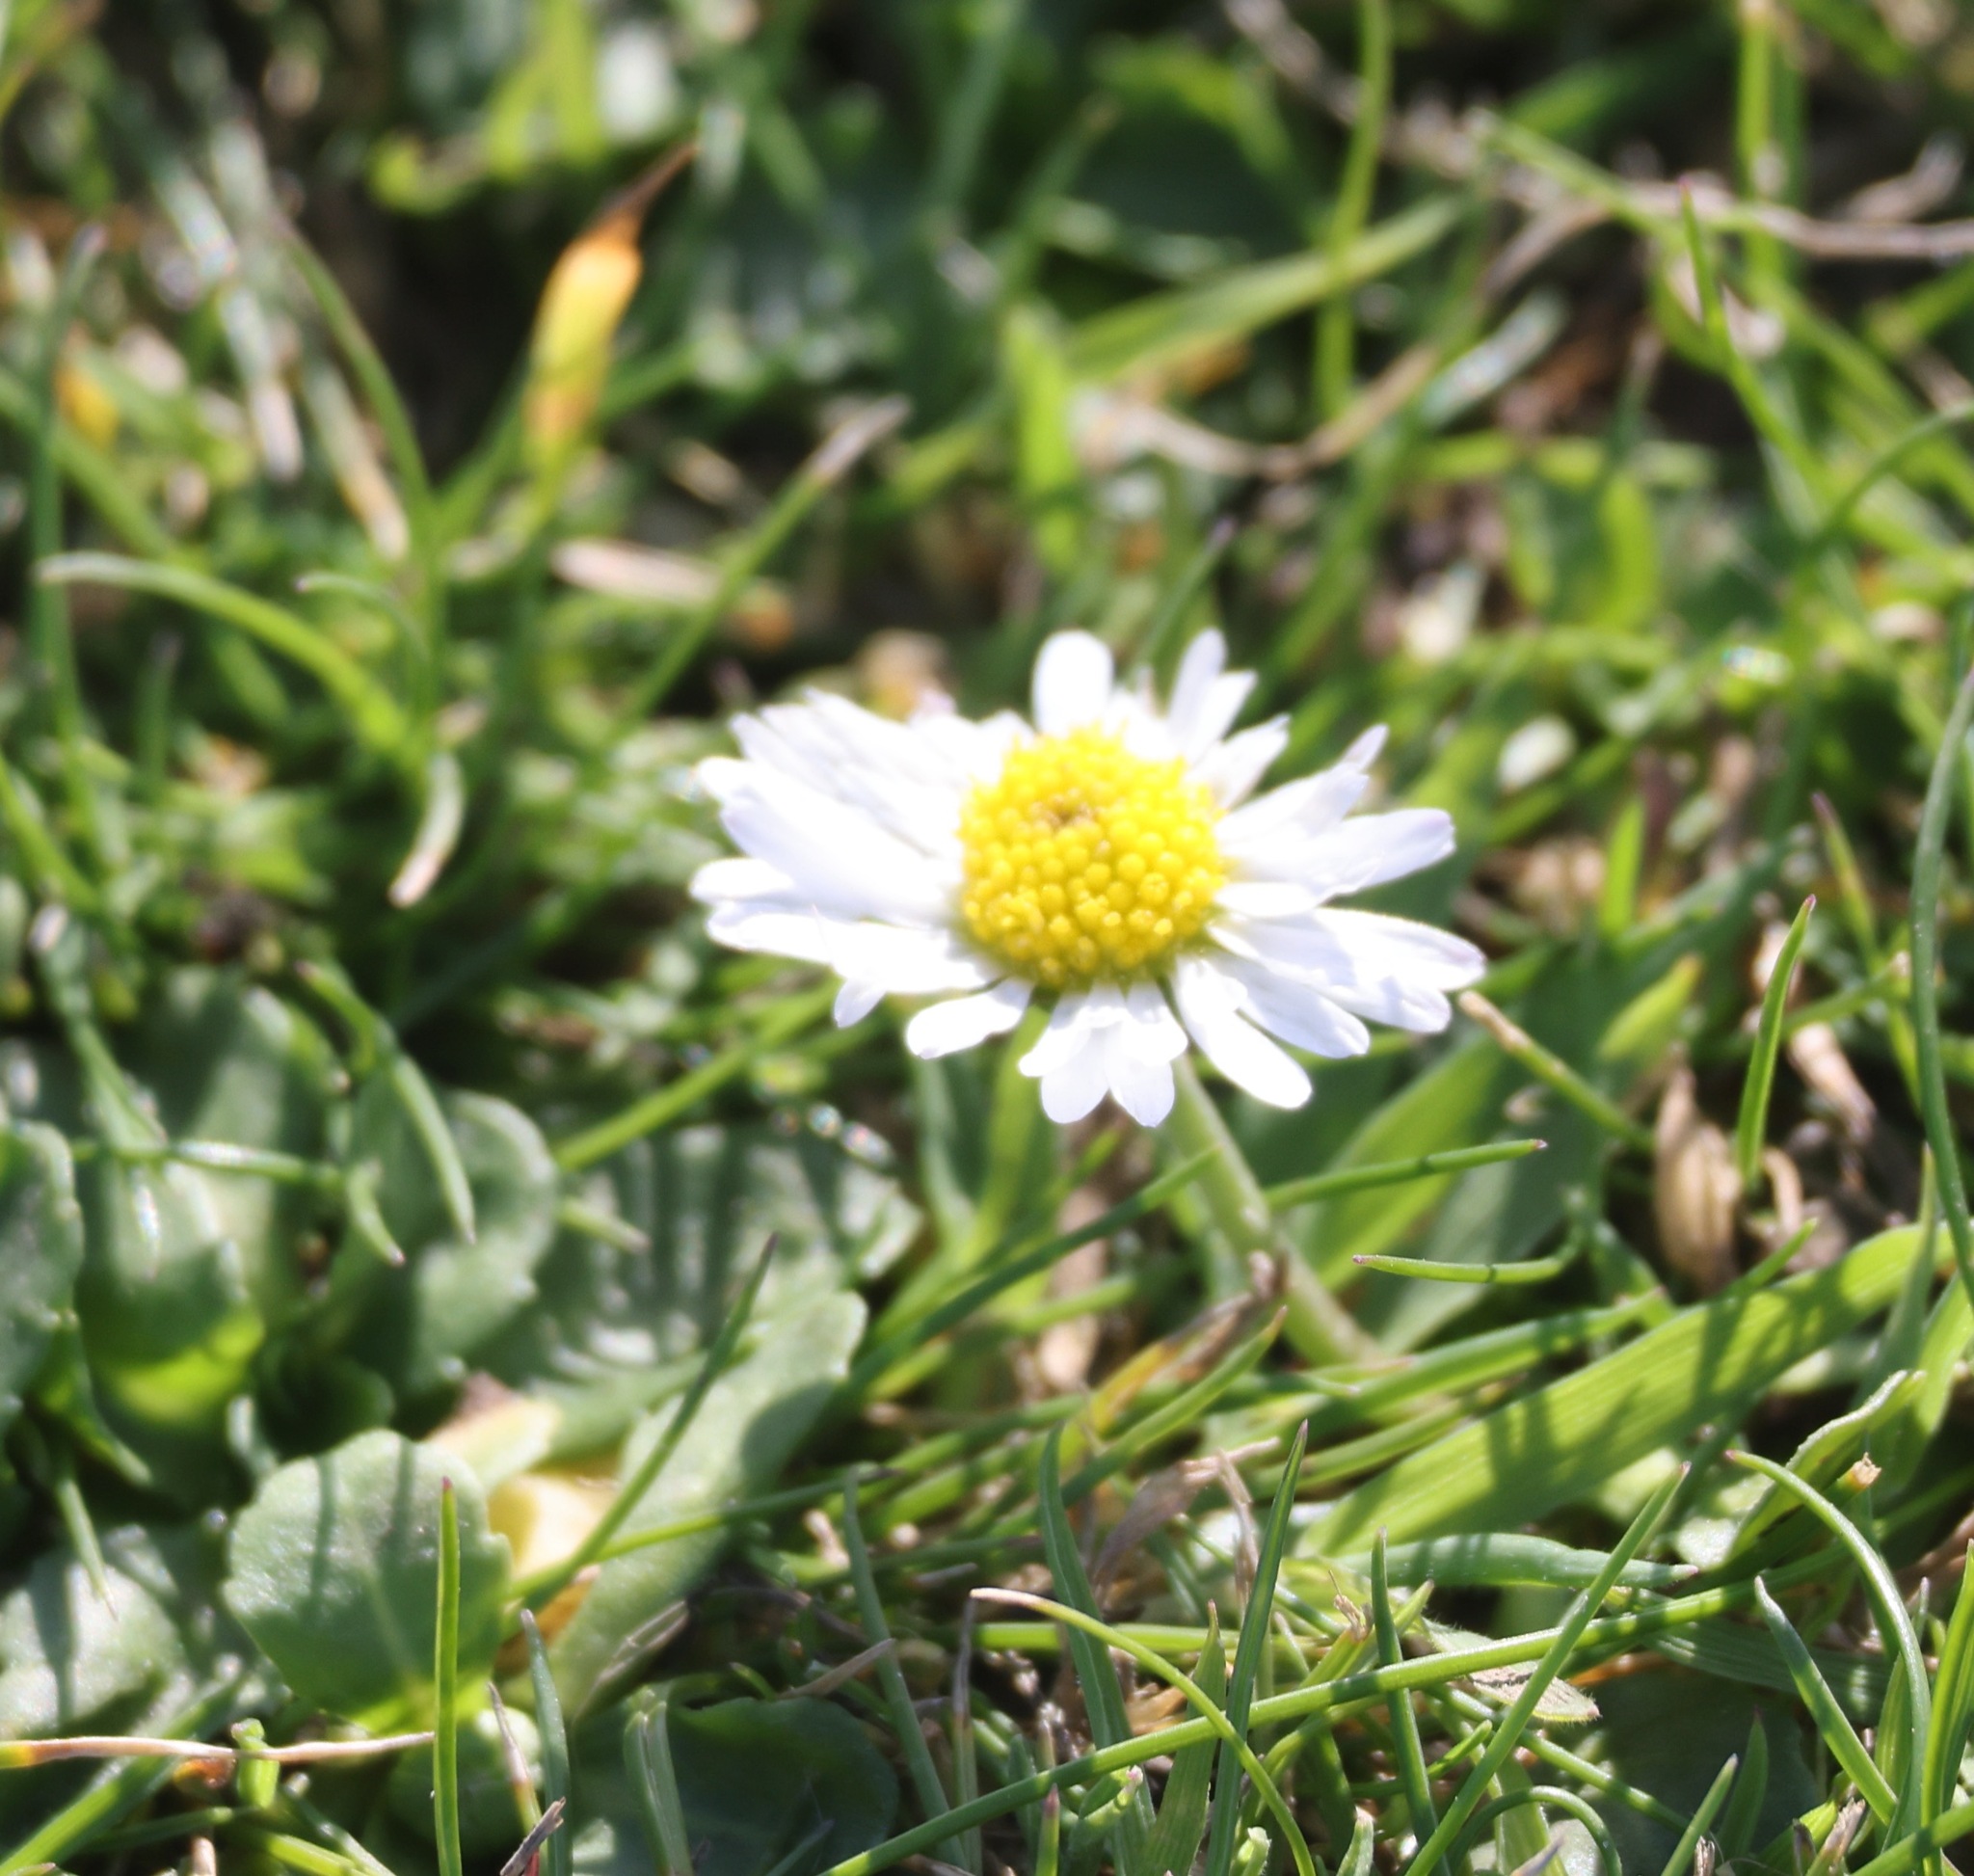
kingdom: Plantae
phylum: Tracheophyta
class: Magnoliopsida
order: Asterales
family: Asteraceae
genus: Bellis
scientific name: Bellis perennis
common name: Lawndaisy
